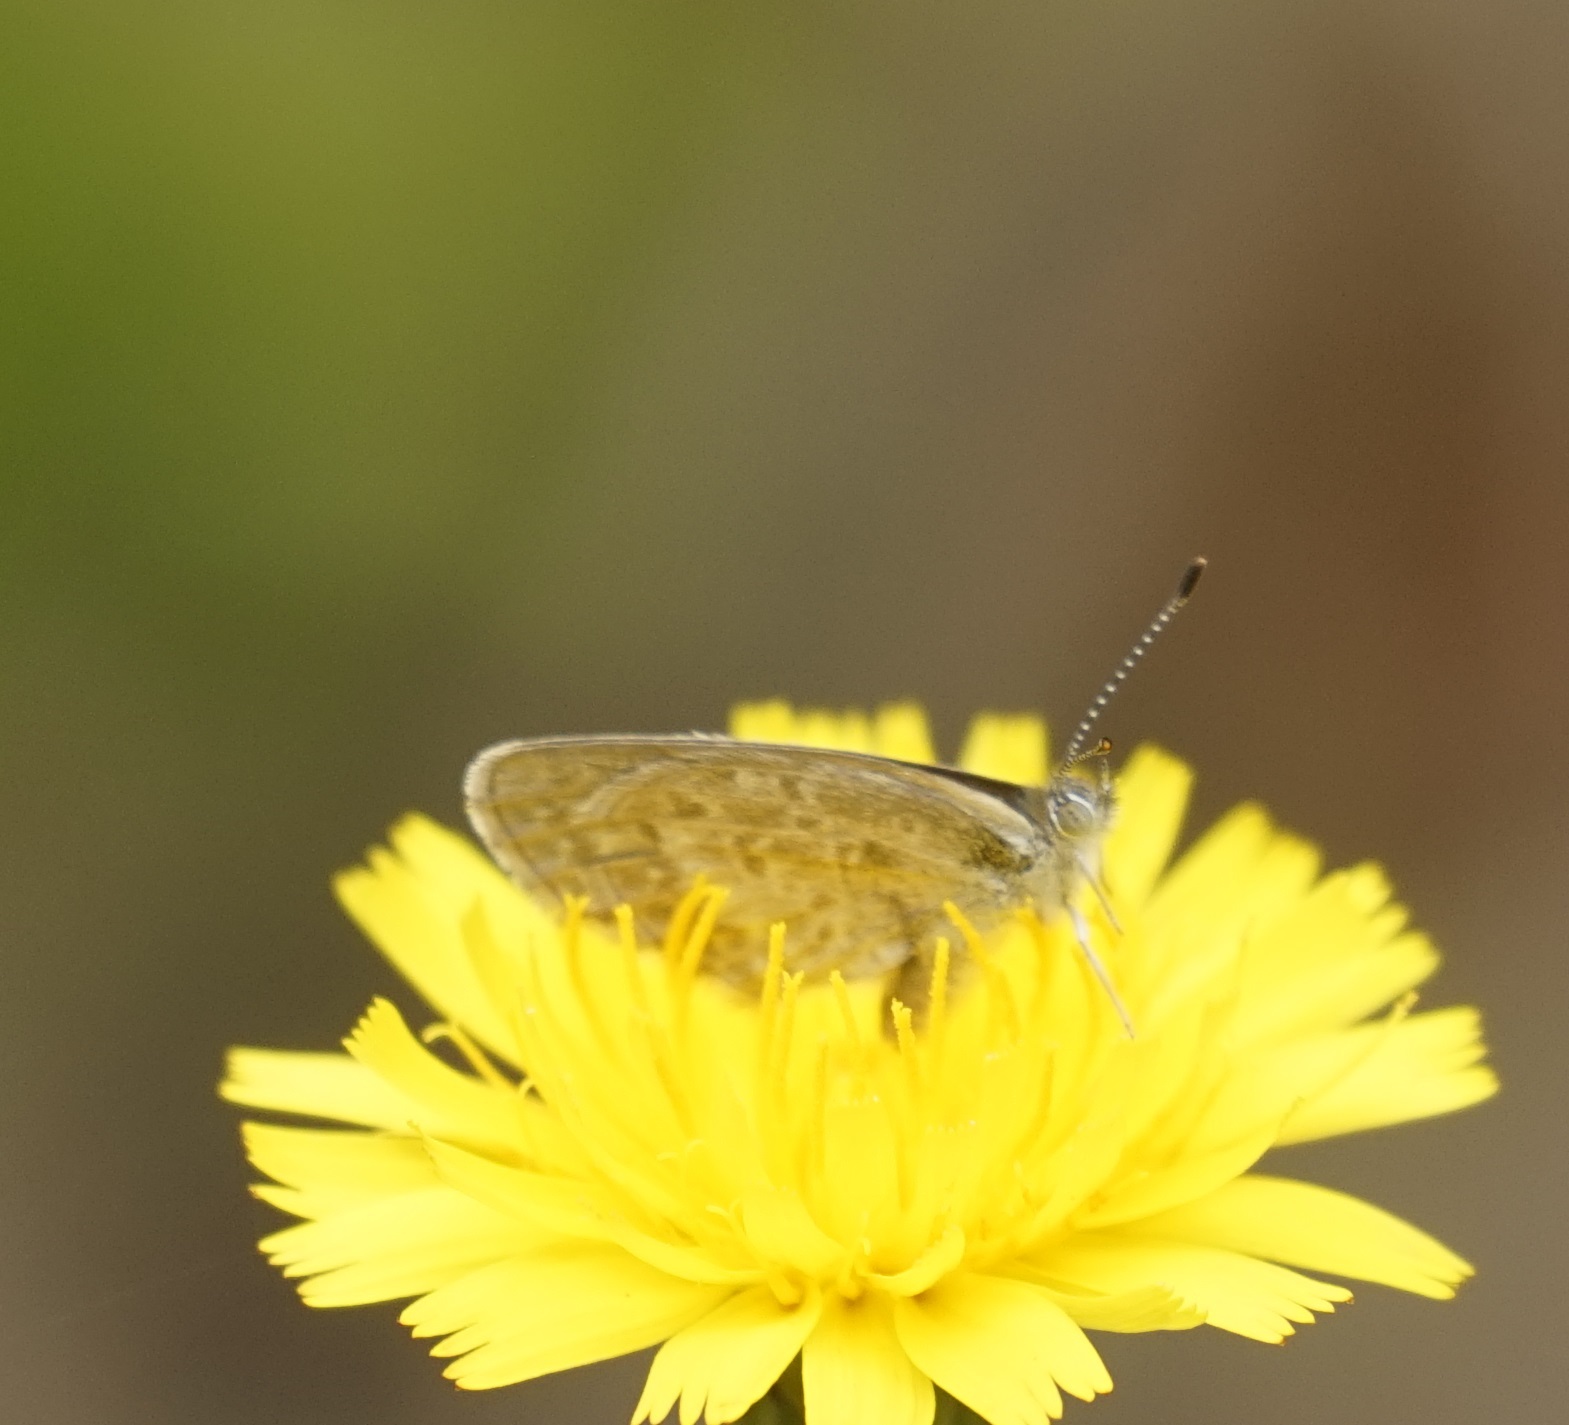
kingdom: Animalia
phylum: Arthropoda
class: Insecta
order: Lepidoptera
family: Lycaenidae
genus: Zizina
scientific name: Zizina labradus
